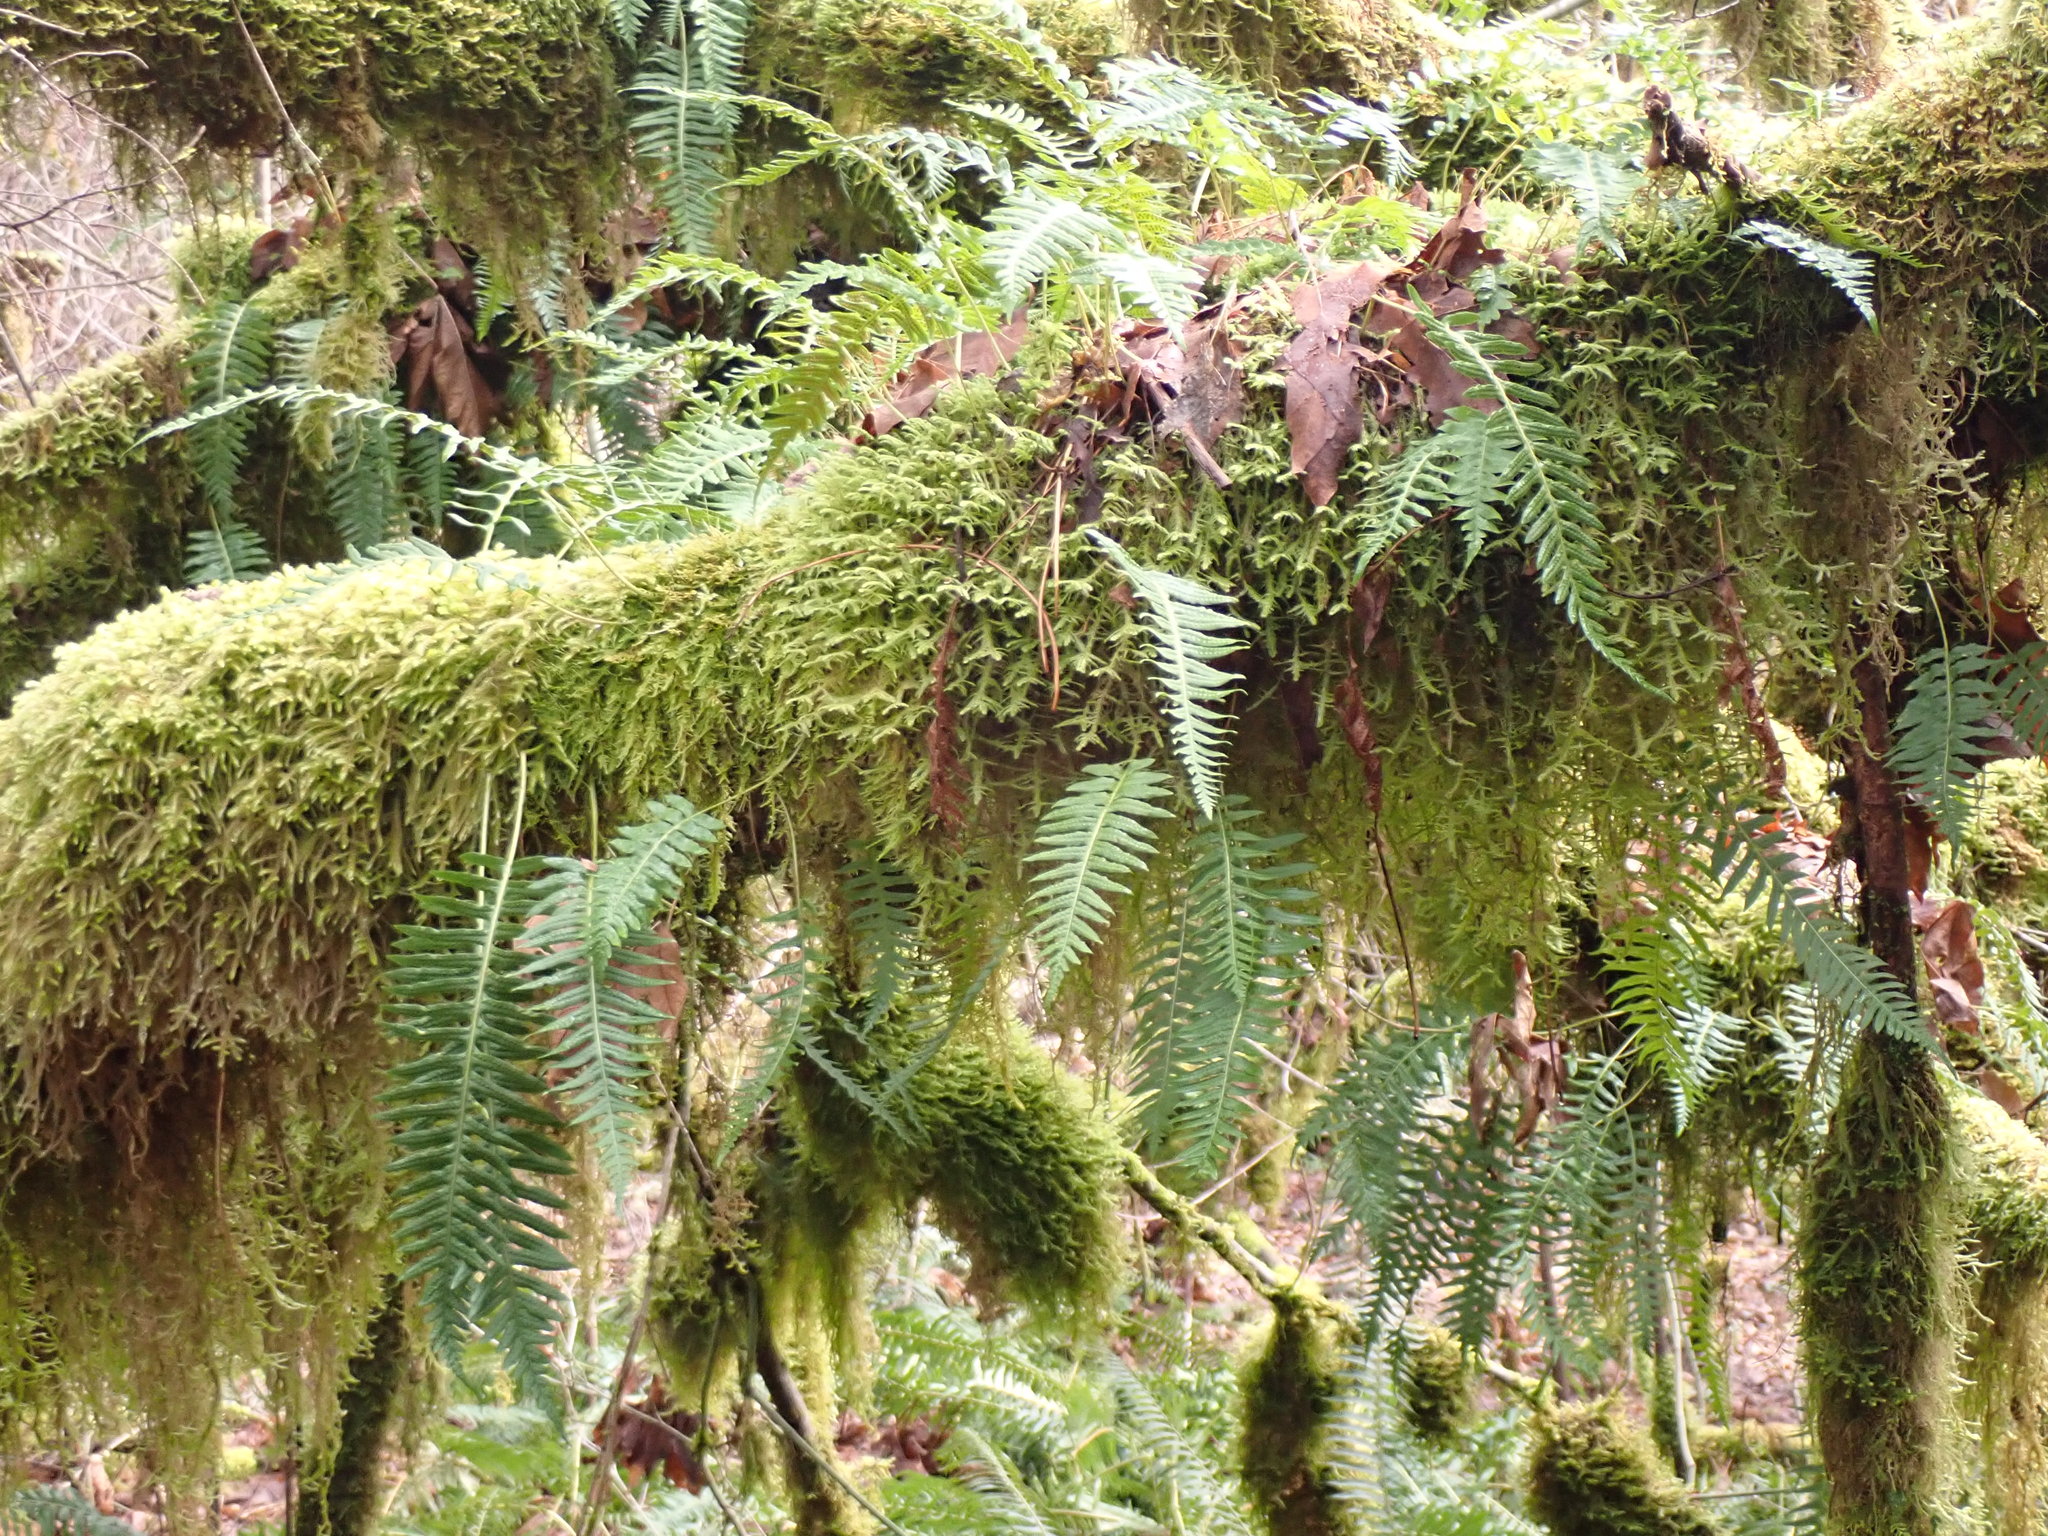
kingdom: Plantae
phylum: Tracheophyta
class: Polypodiopsida
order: Polypodiales
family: Polypodiaceae
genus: Polypodium
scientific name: Polypodium glycyrrhiza
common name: Licorice fern
